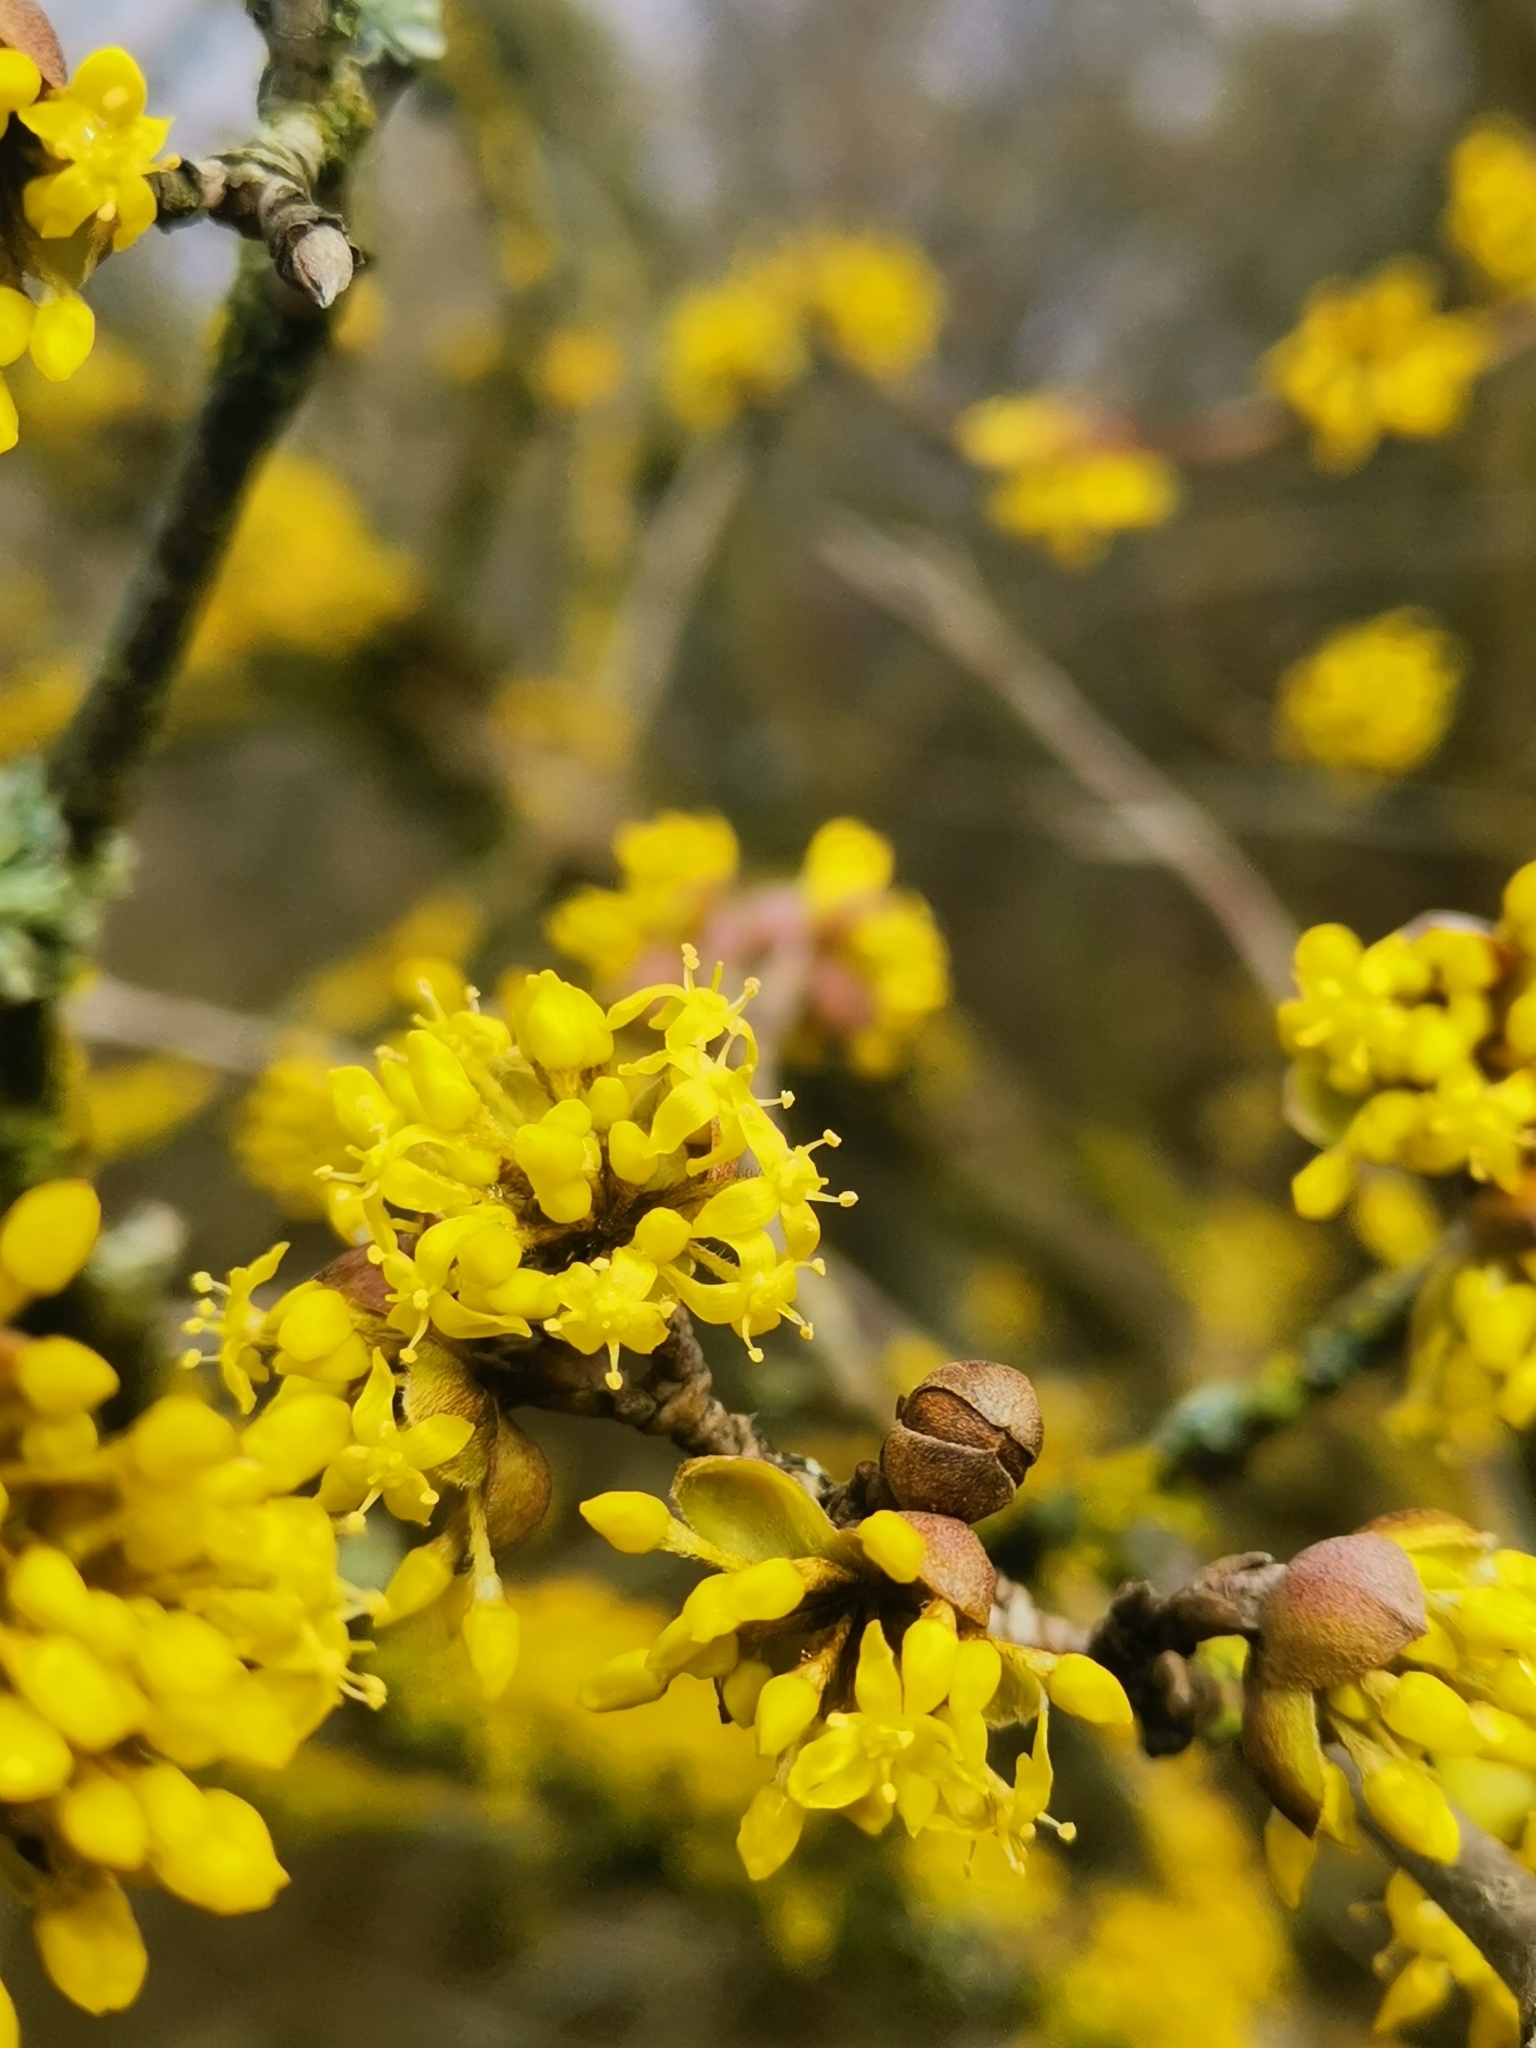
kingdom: Plantae
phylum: Tracheophyta
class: Magnoliopsida
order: Cornales
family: Cornaceae
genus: Cornus
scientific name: Cornus mas
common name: Cornelian-cherry
